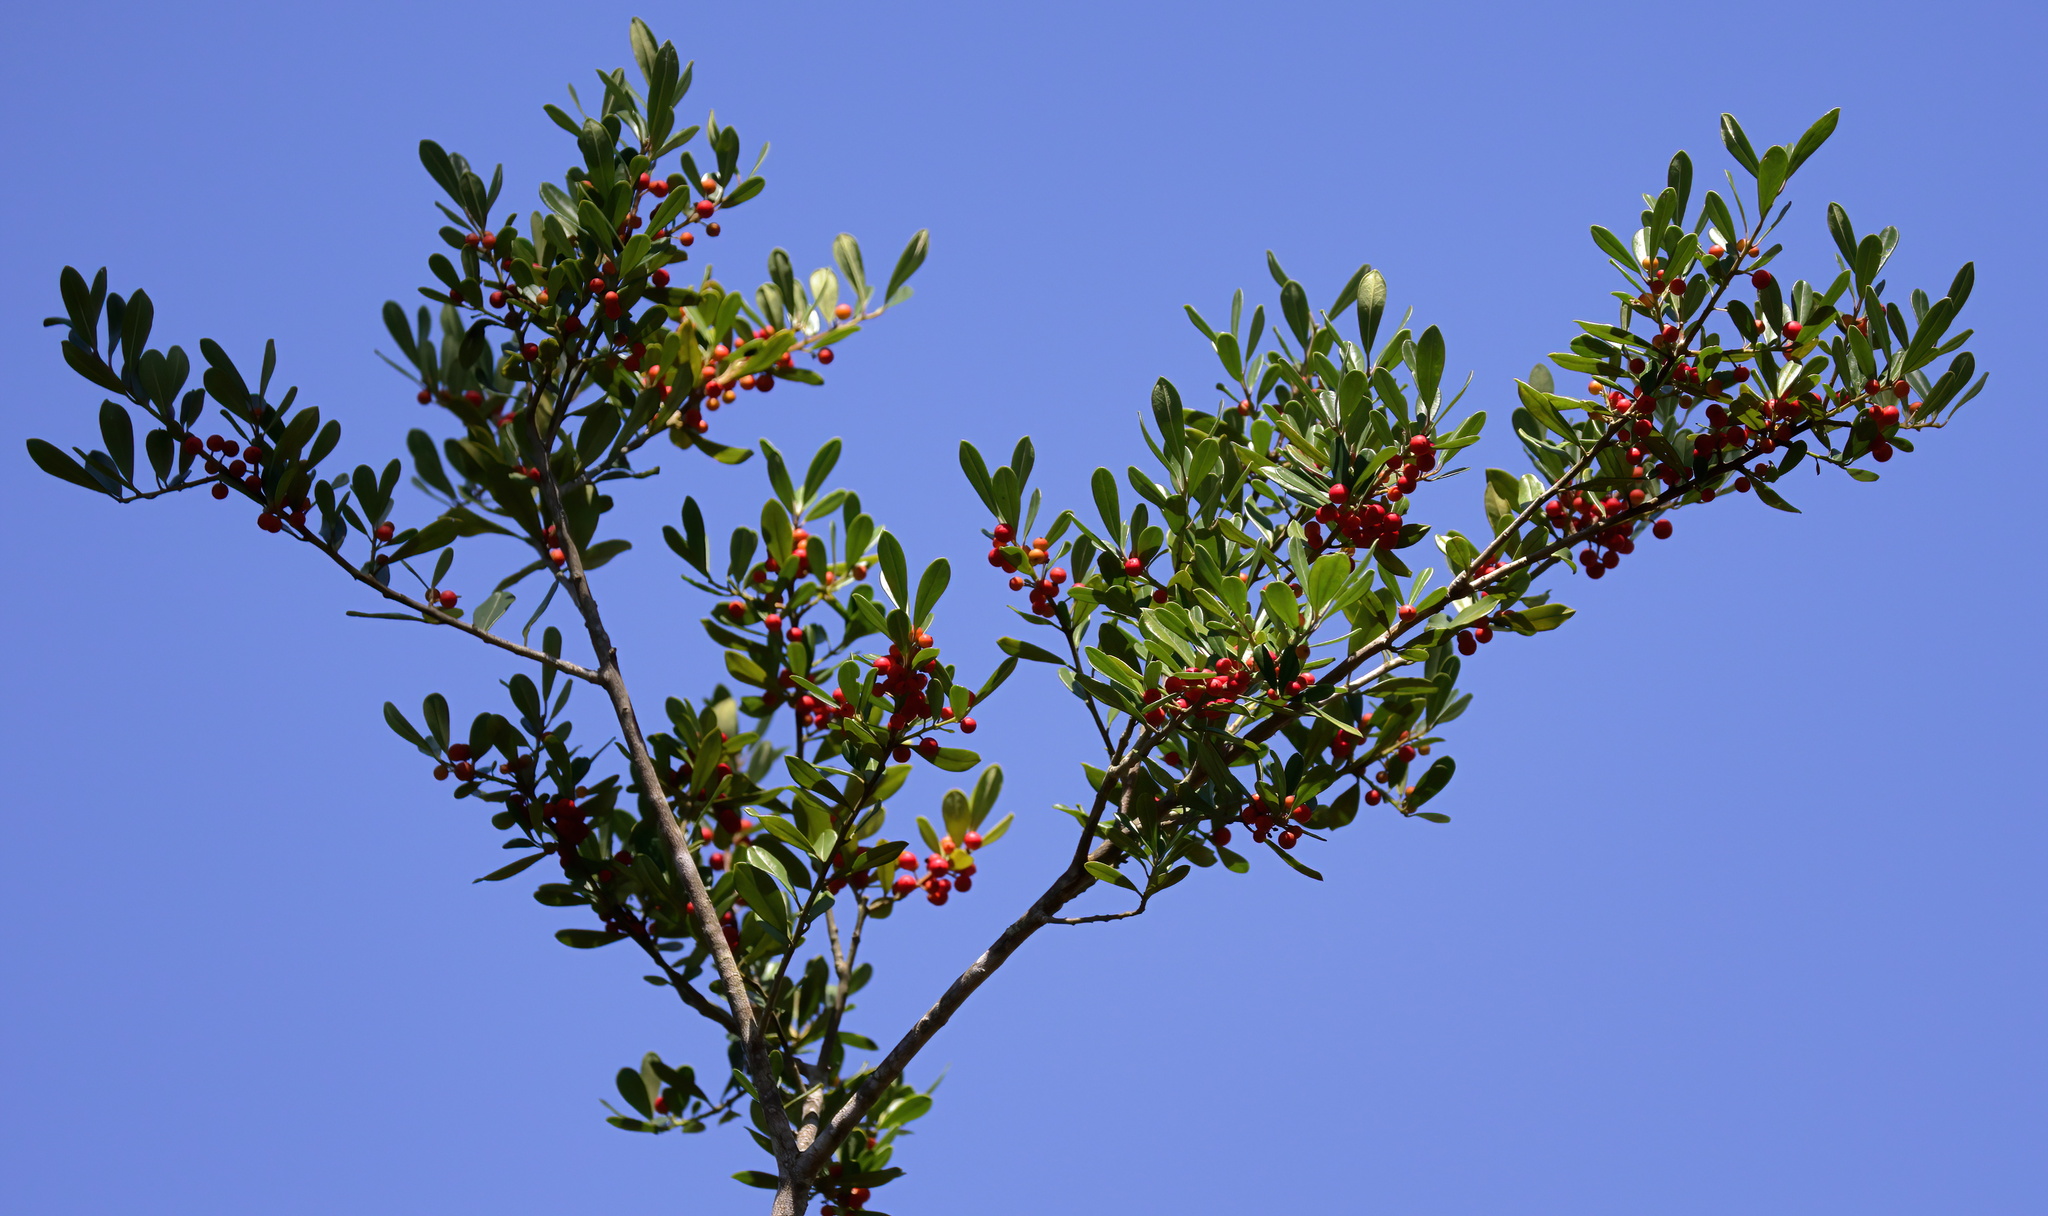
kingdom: Plantae
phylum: Tracheophyta
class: Magnoliopsida
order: Aquifoliales
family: Aquifoliaceae
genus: Ilex
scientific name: Ilex cassine
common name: Dahoon
